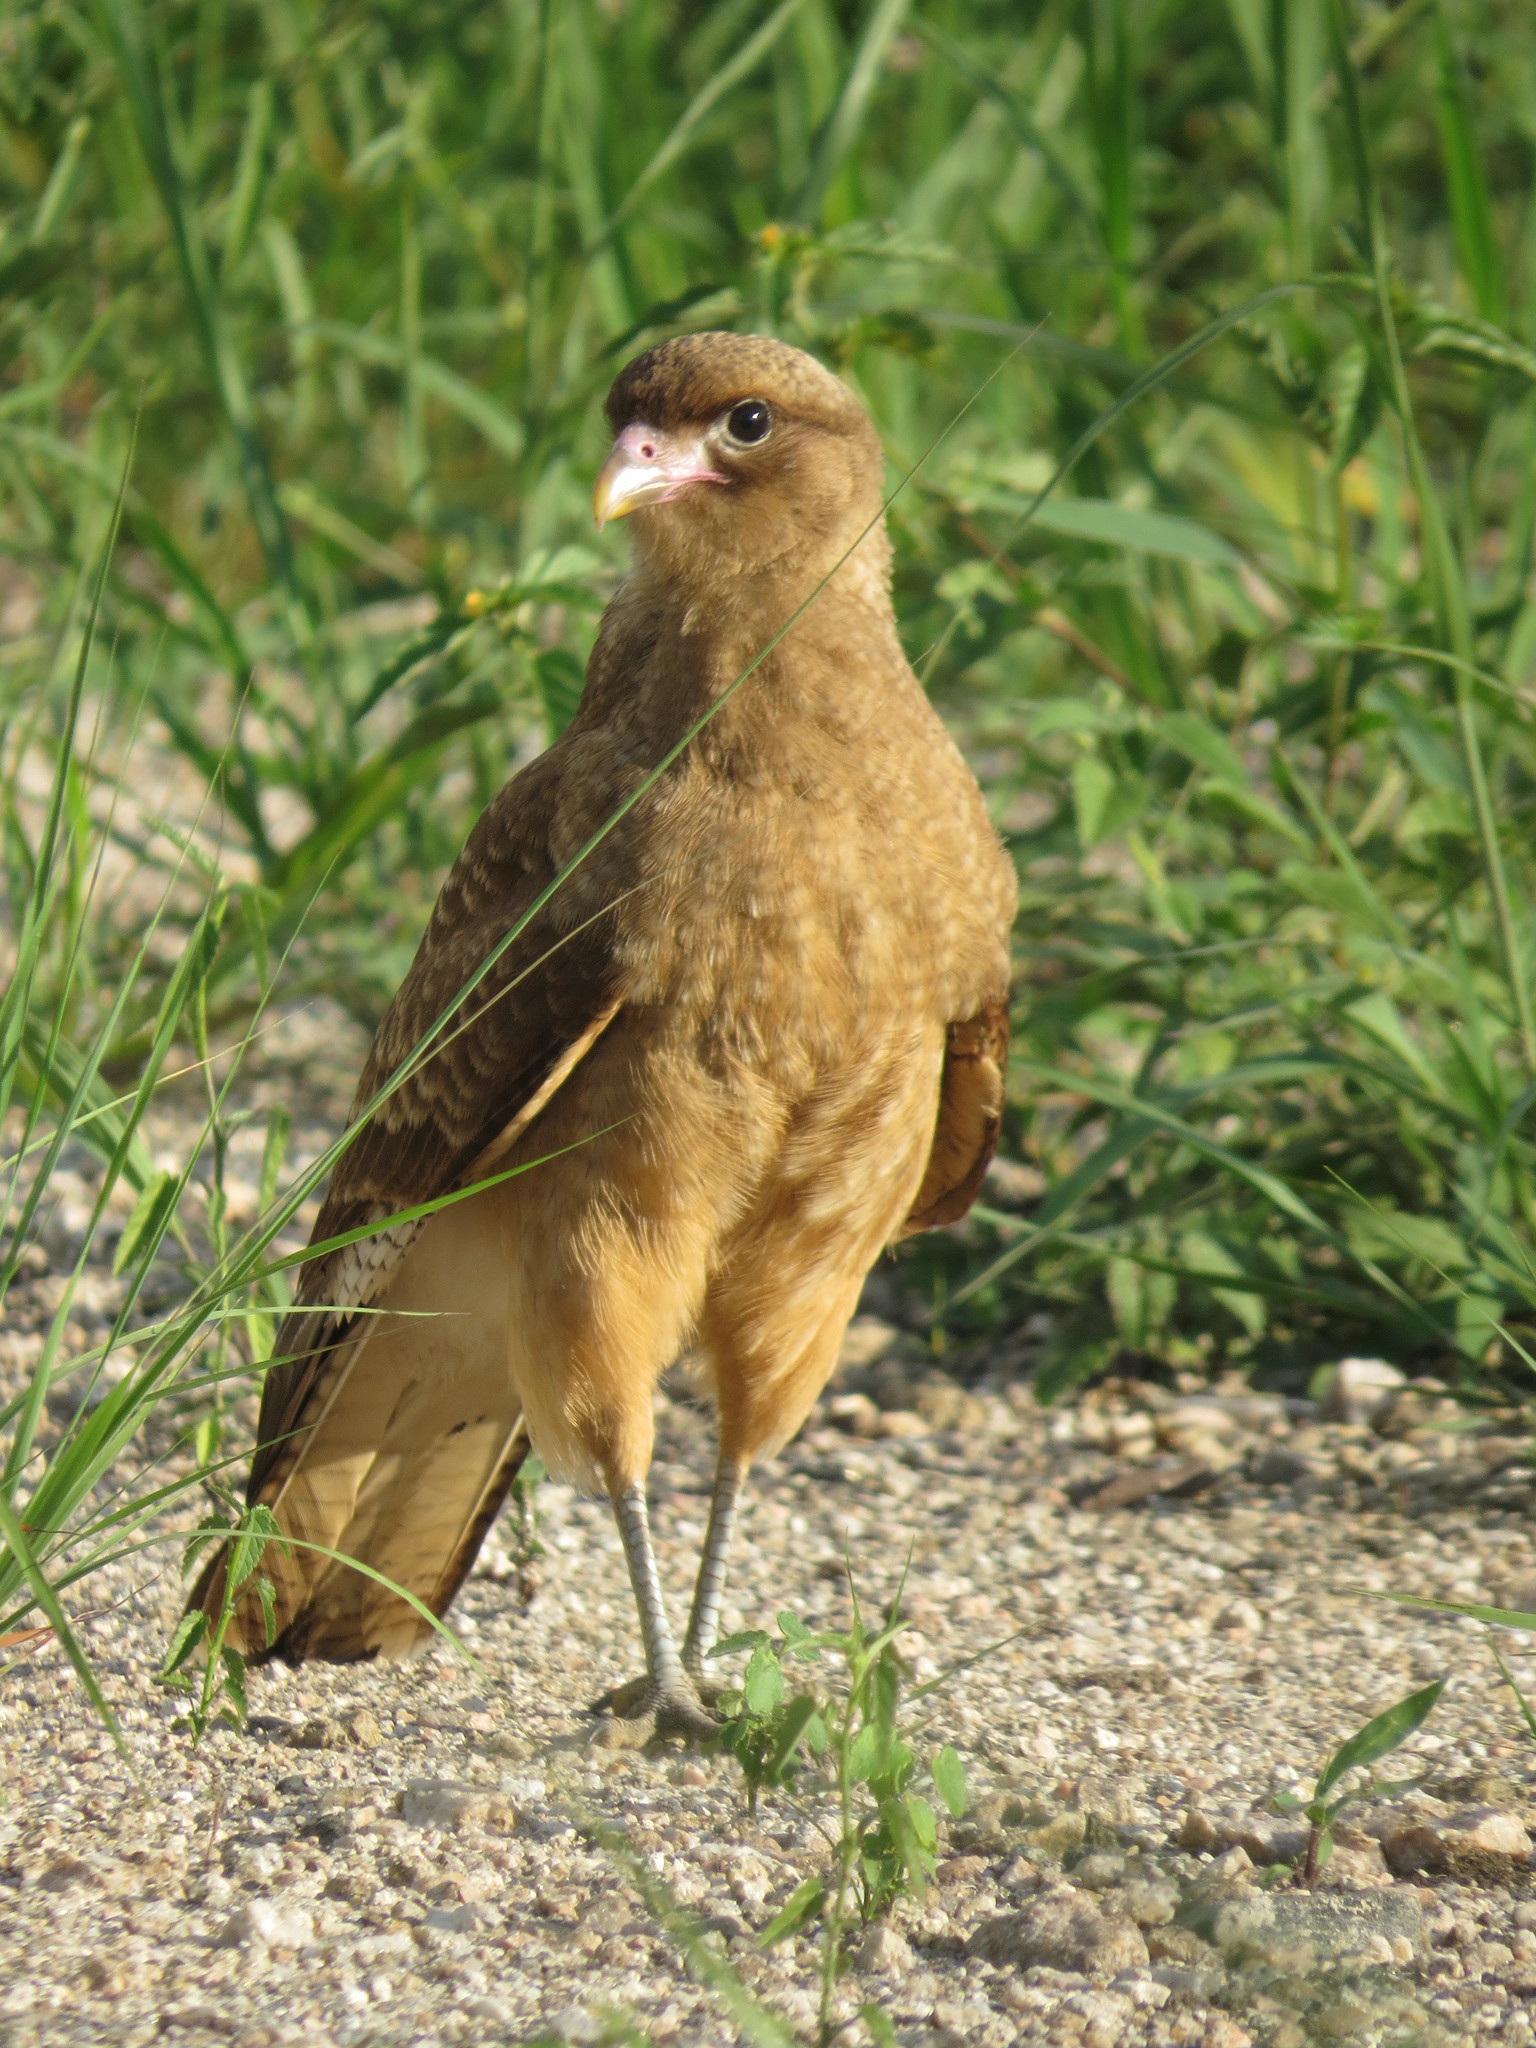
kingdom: Animalia
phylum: Chordata
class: Aves
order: Falconiformes
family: Falconidae
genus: Daptrius
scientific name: Daptrius
